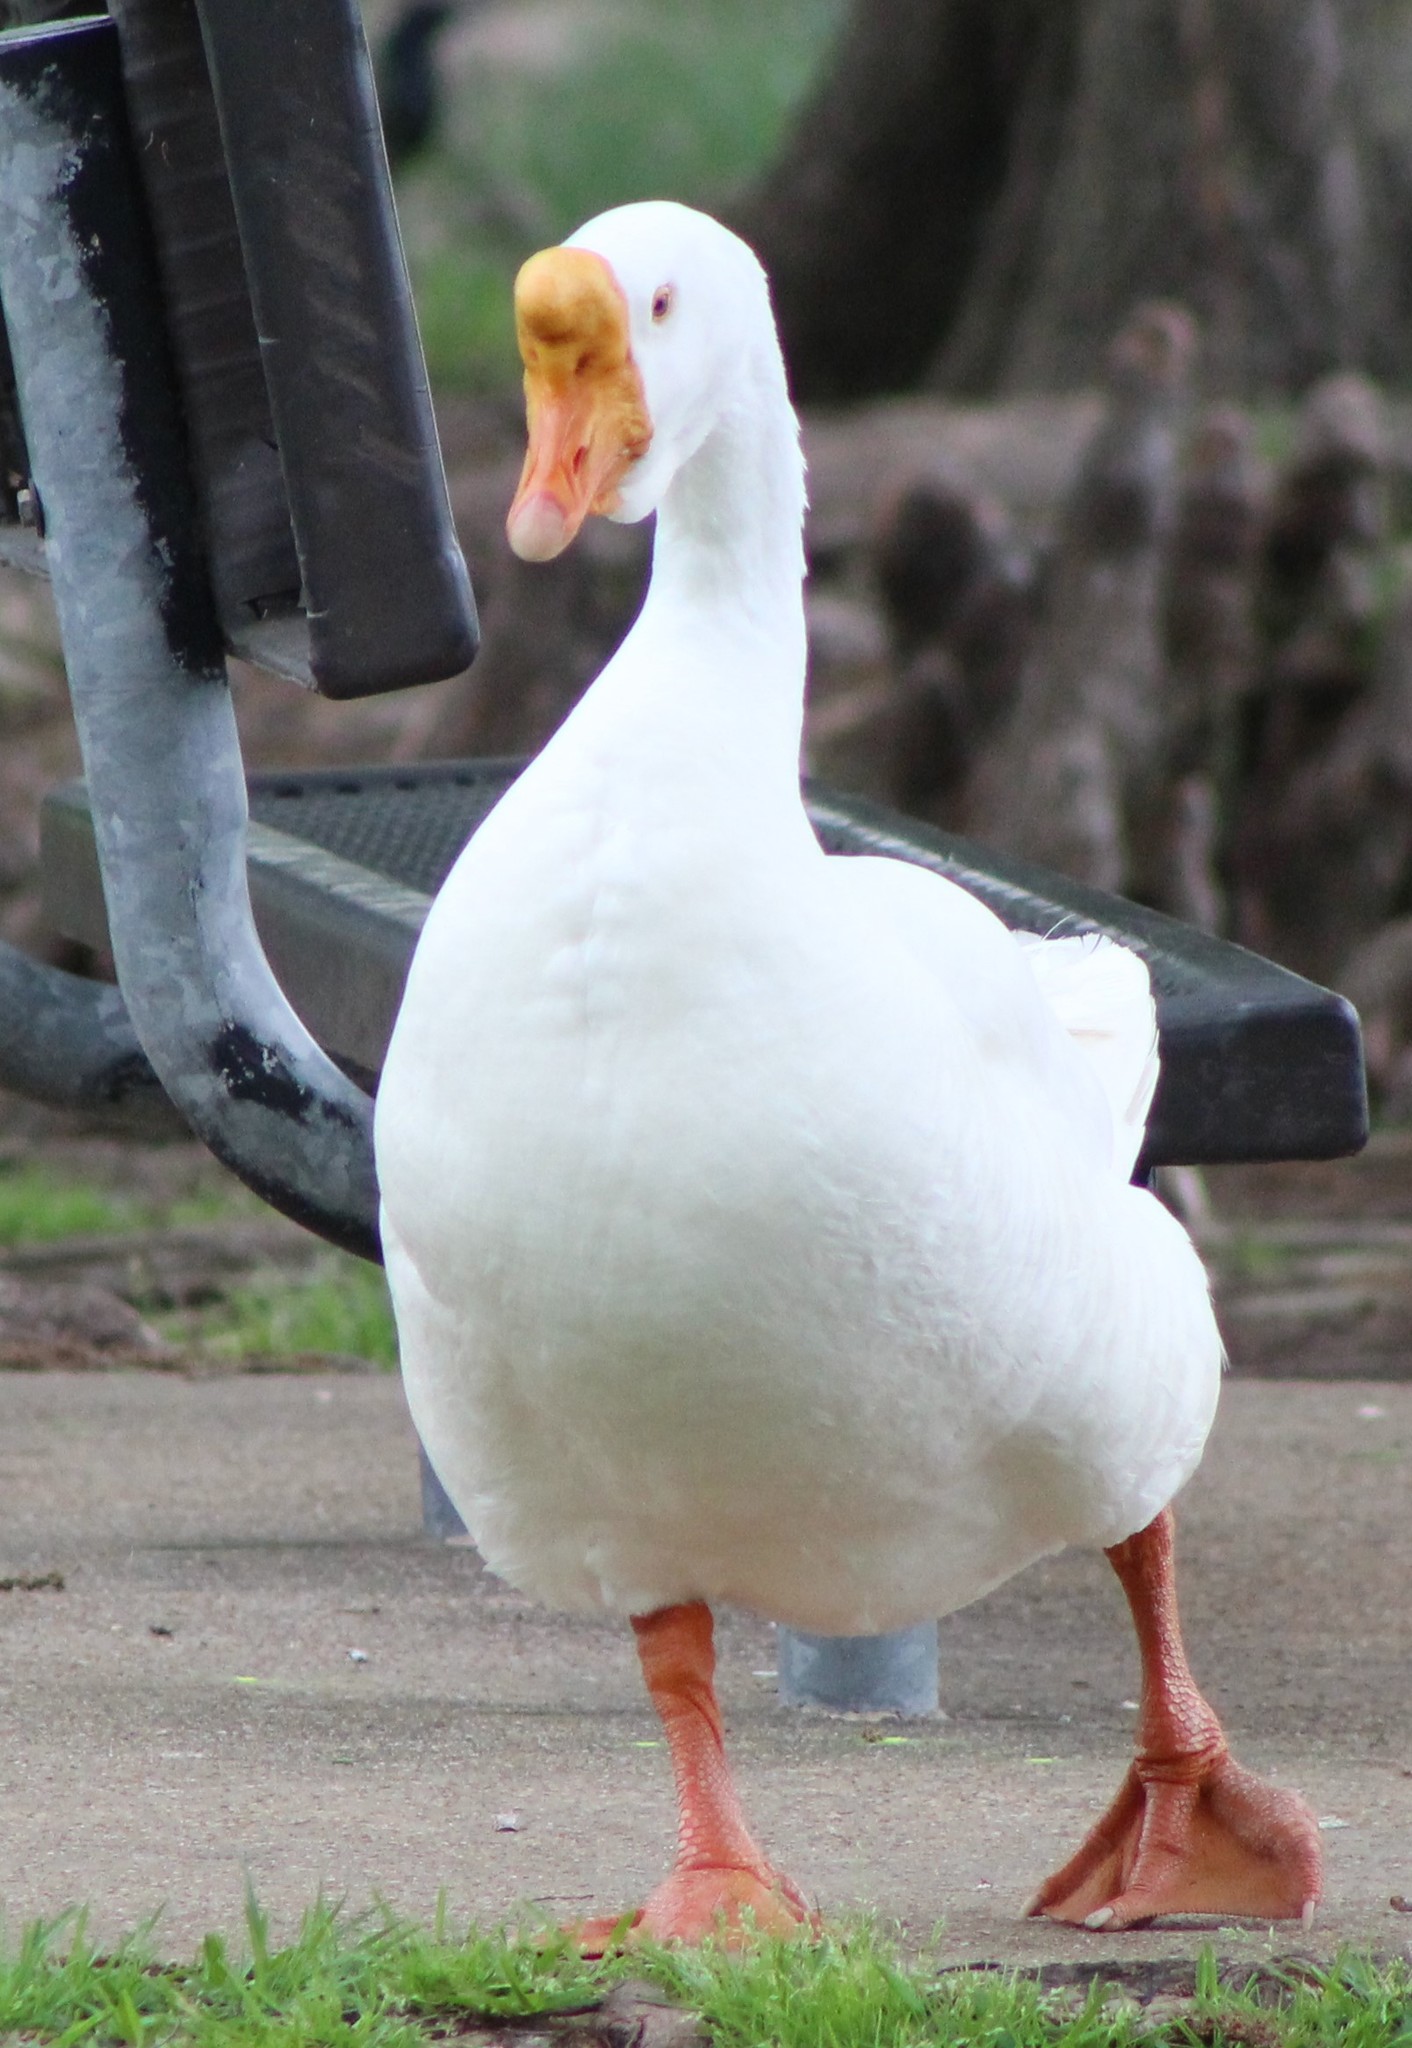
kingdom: Animalia
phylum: Chordata
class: Aves
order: Anseriformes
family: Anatidae
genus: Anser
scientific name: Anser cygnoides
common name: Swan goose
